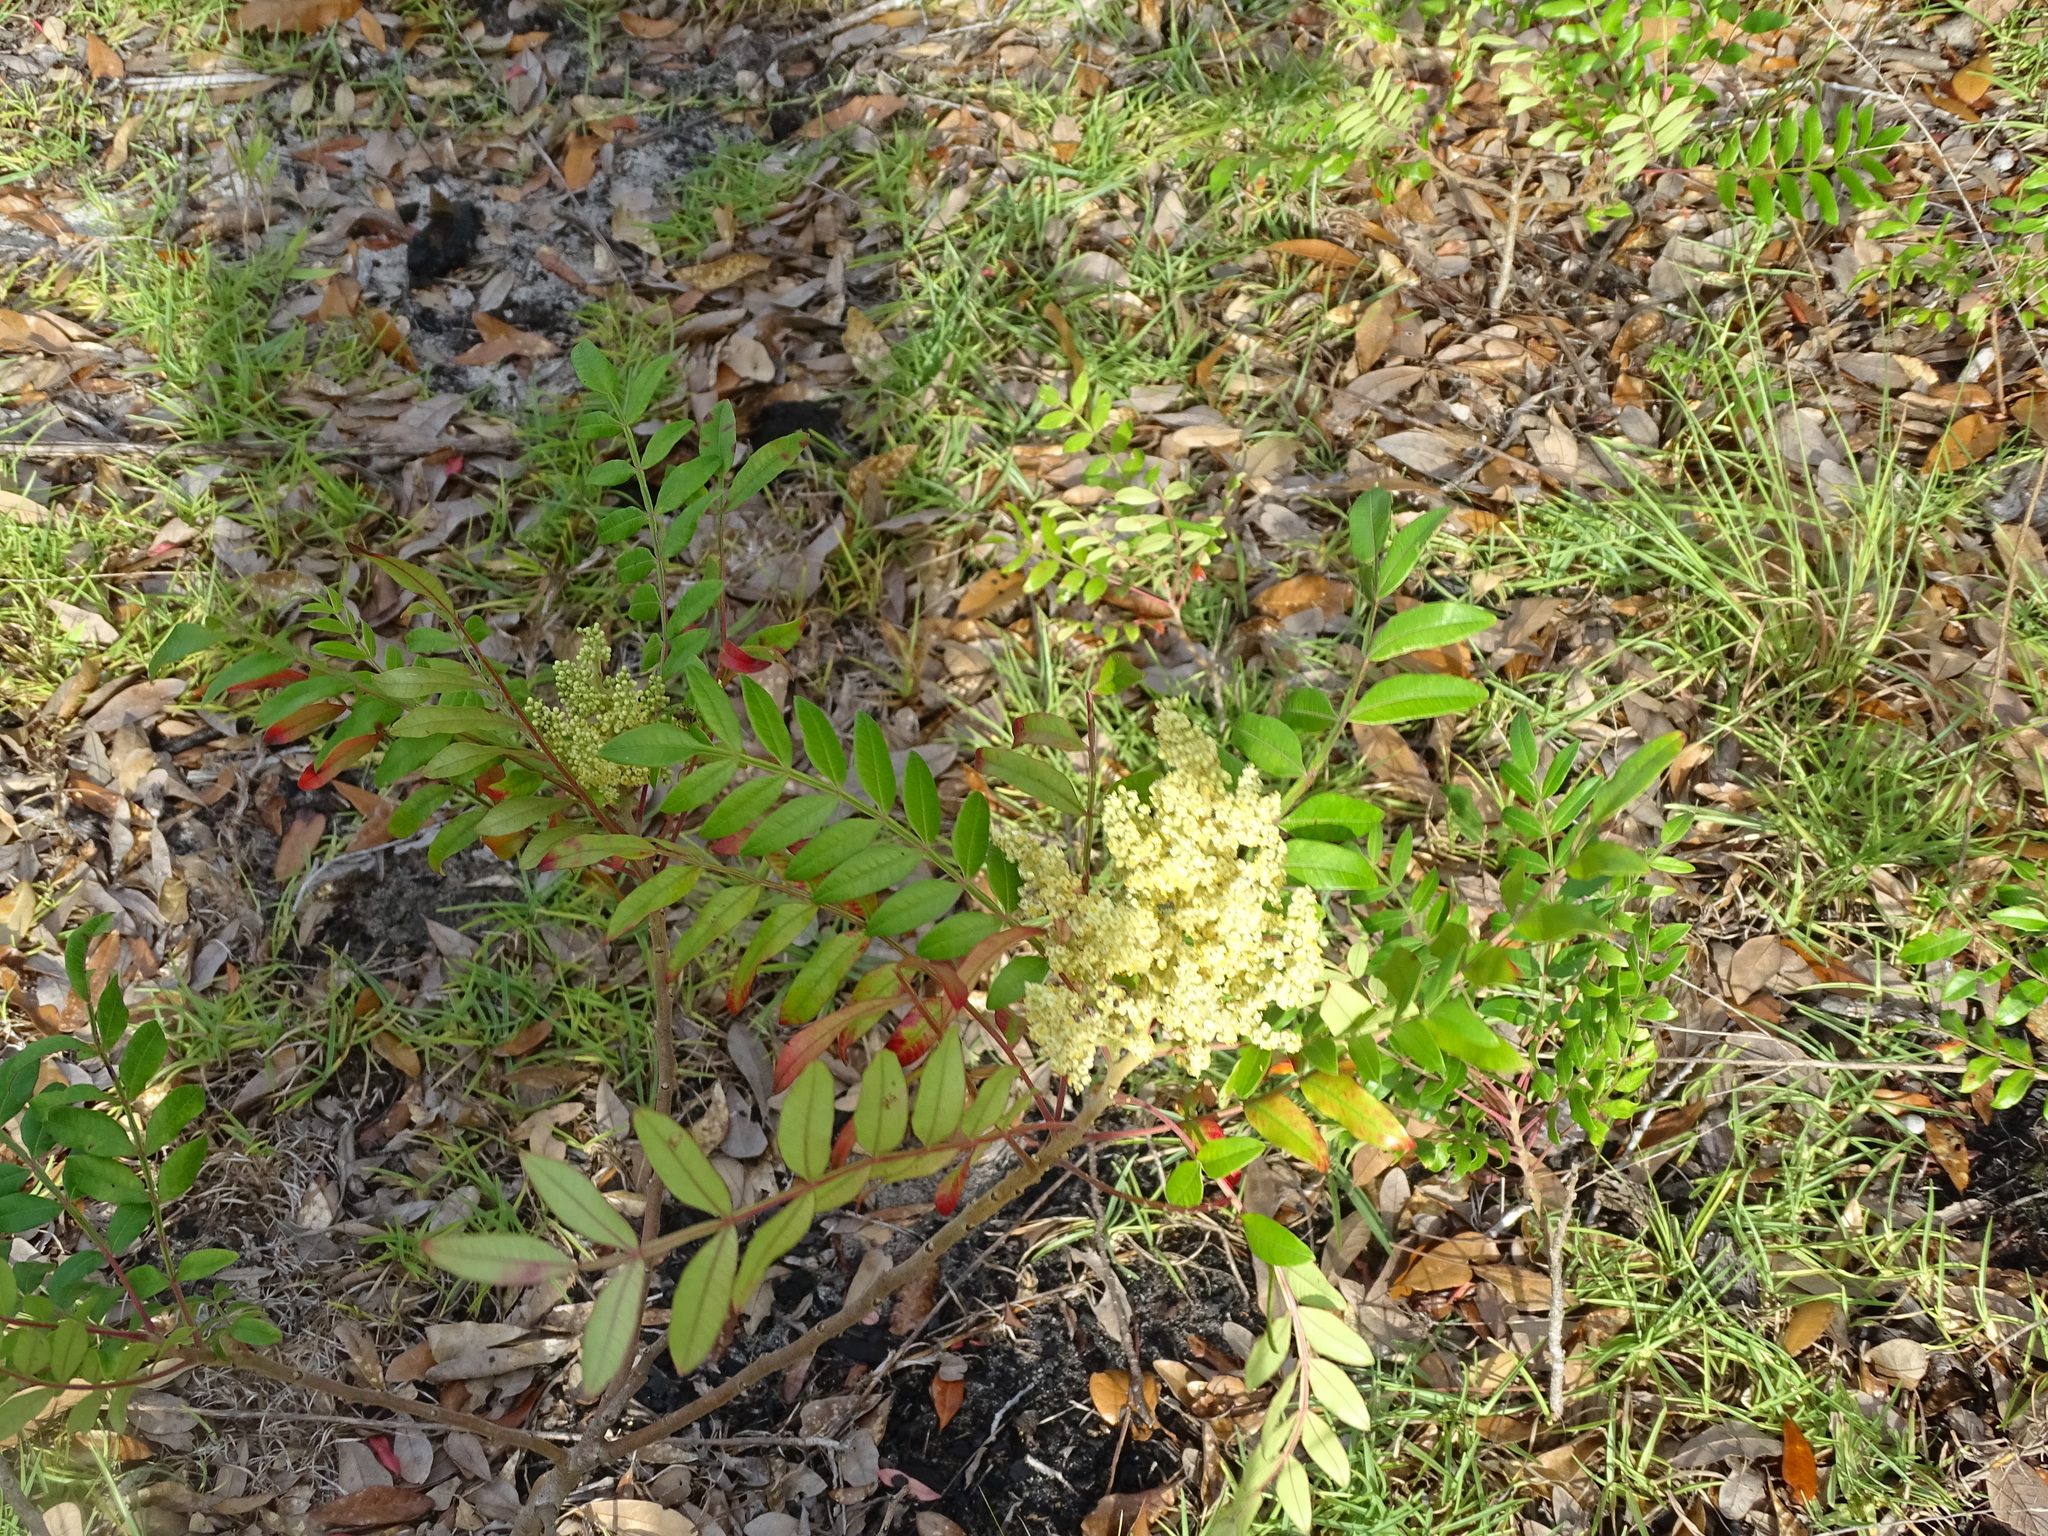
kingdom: Plantae
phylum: Tracheophyta
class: Magnoliopsida
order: Sapindales
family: Anacardiaceae
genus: Rhus
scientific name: Rhus copallina
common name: Shining sumac
